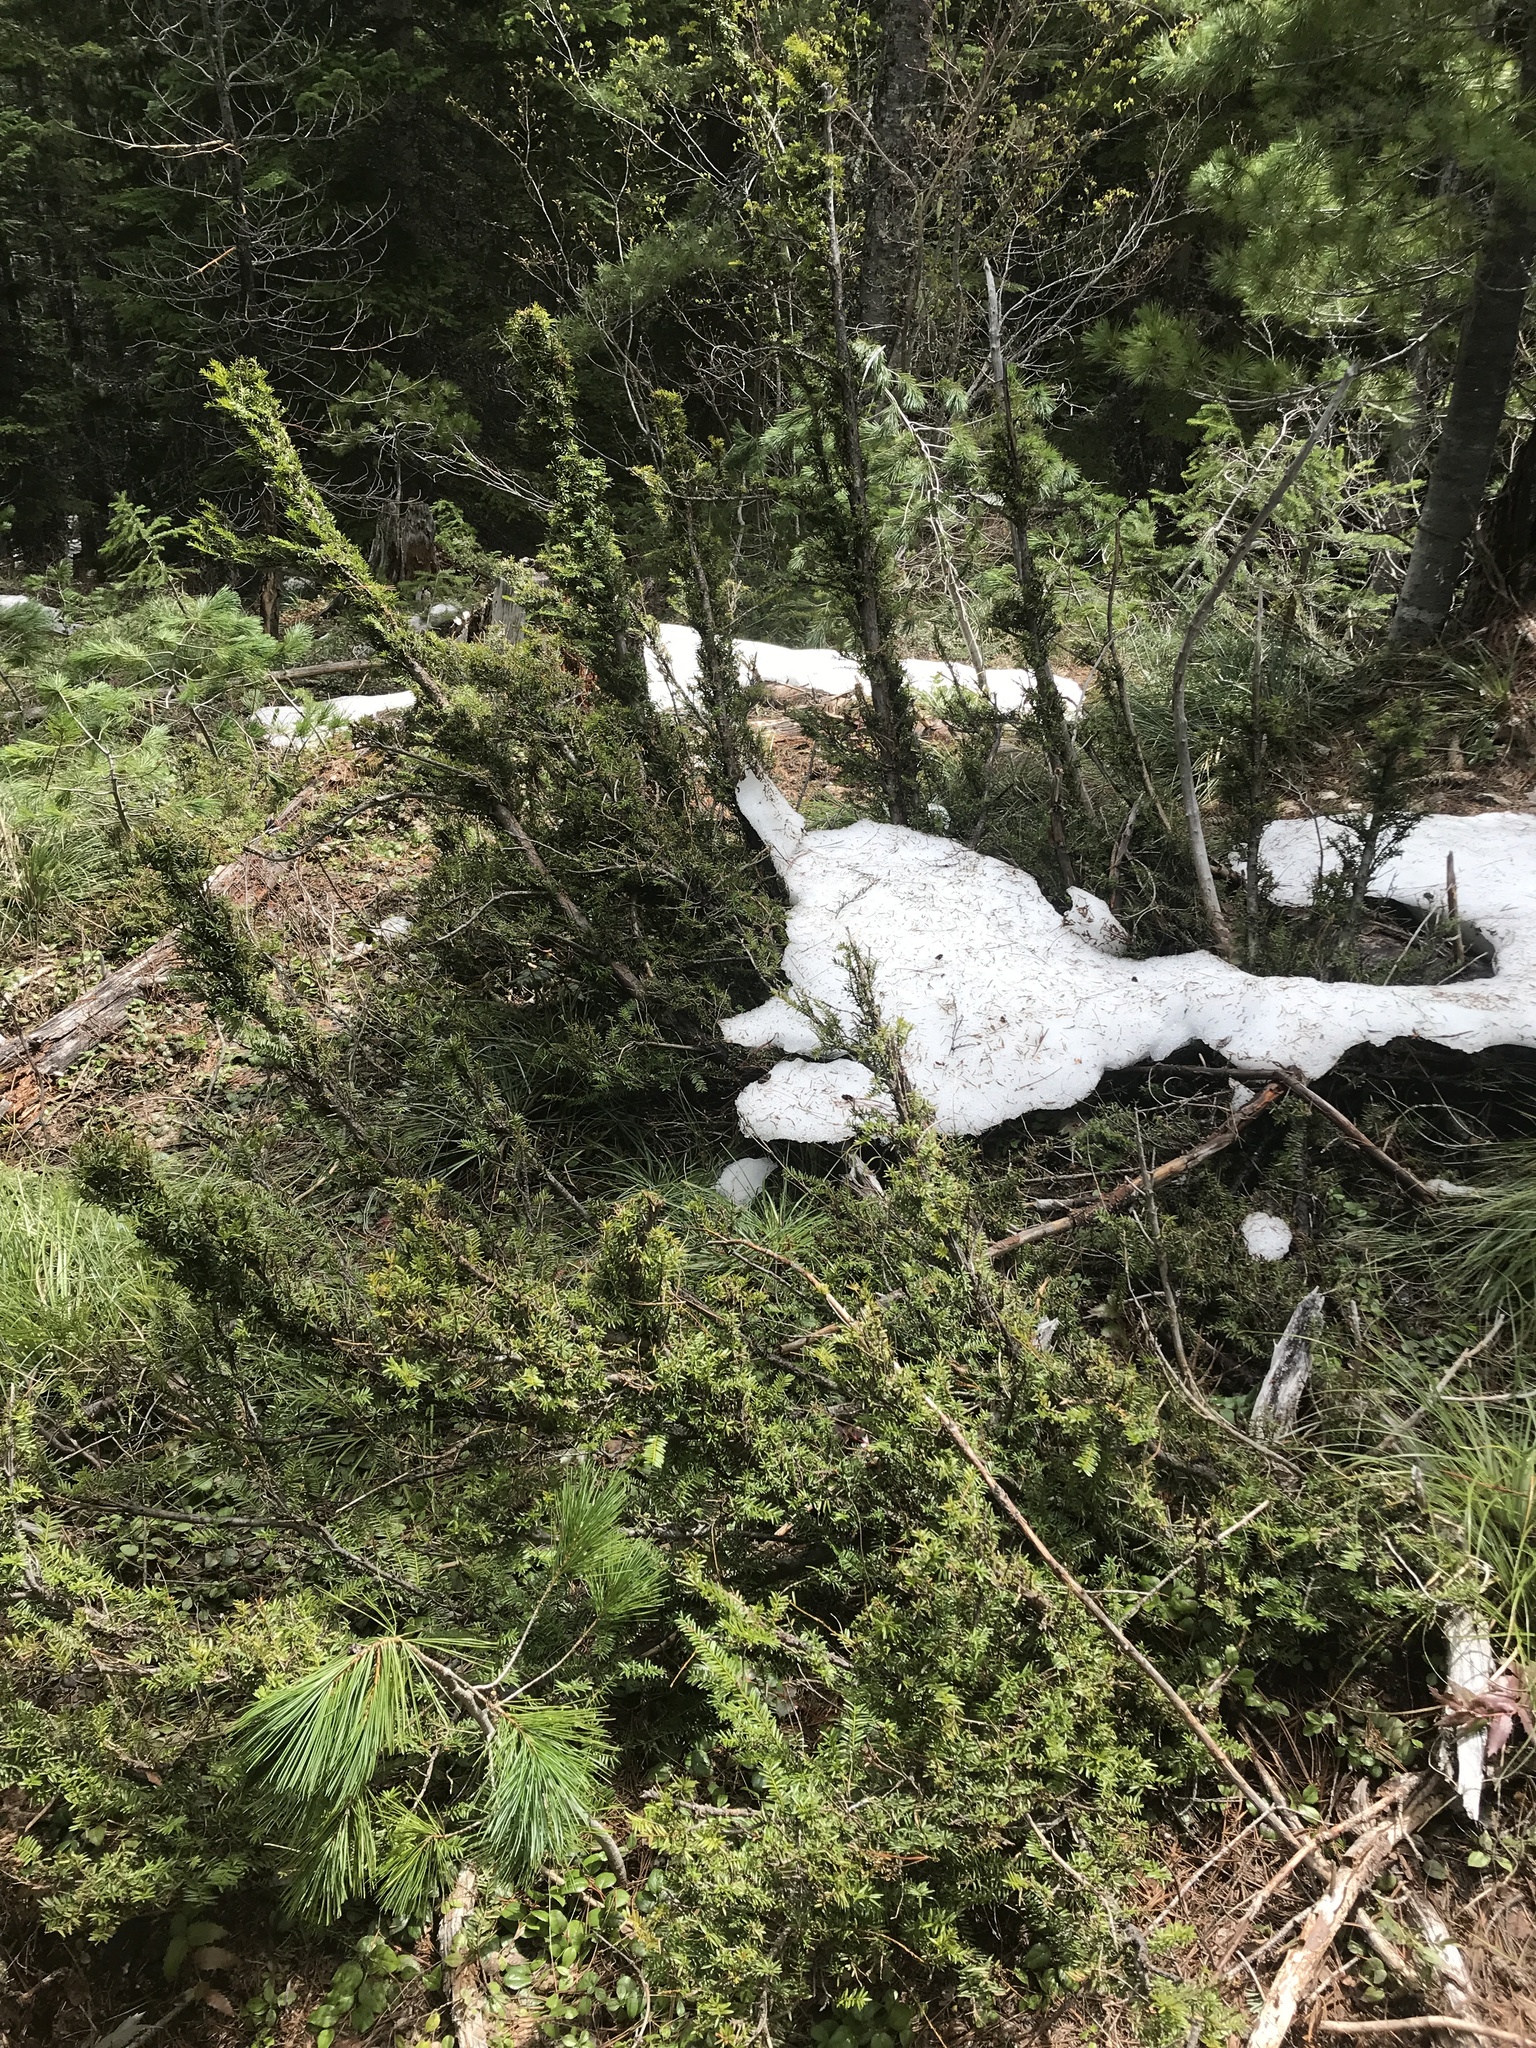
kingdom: Plantae
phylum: Tracheophyta
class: Pinopsida
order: Pinales
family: Taxaceae
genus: Taxus
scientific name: Taxus brevifolia
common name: Pacific yew
